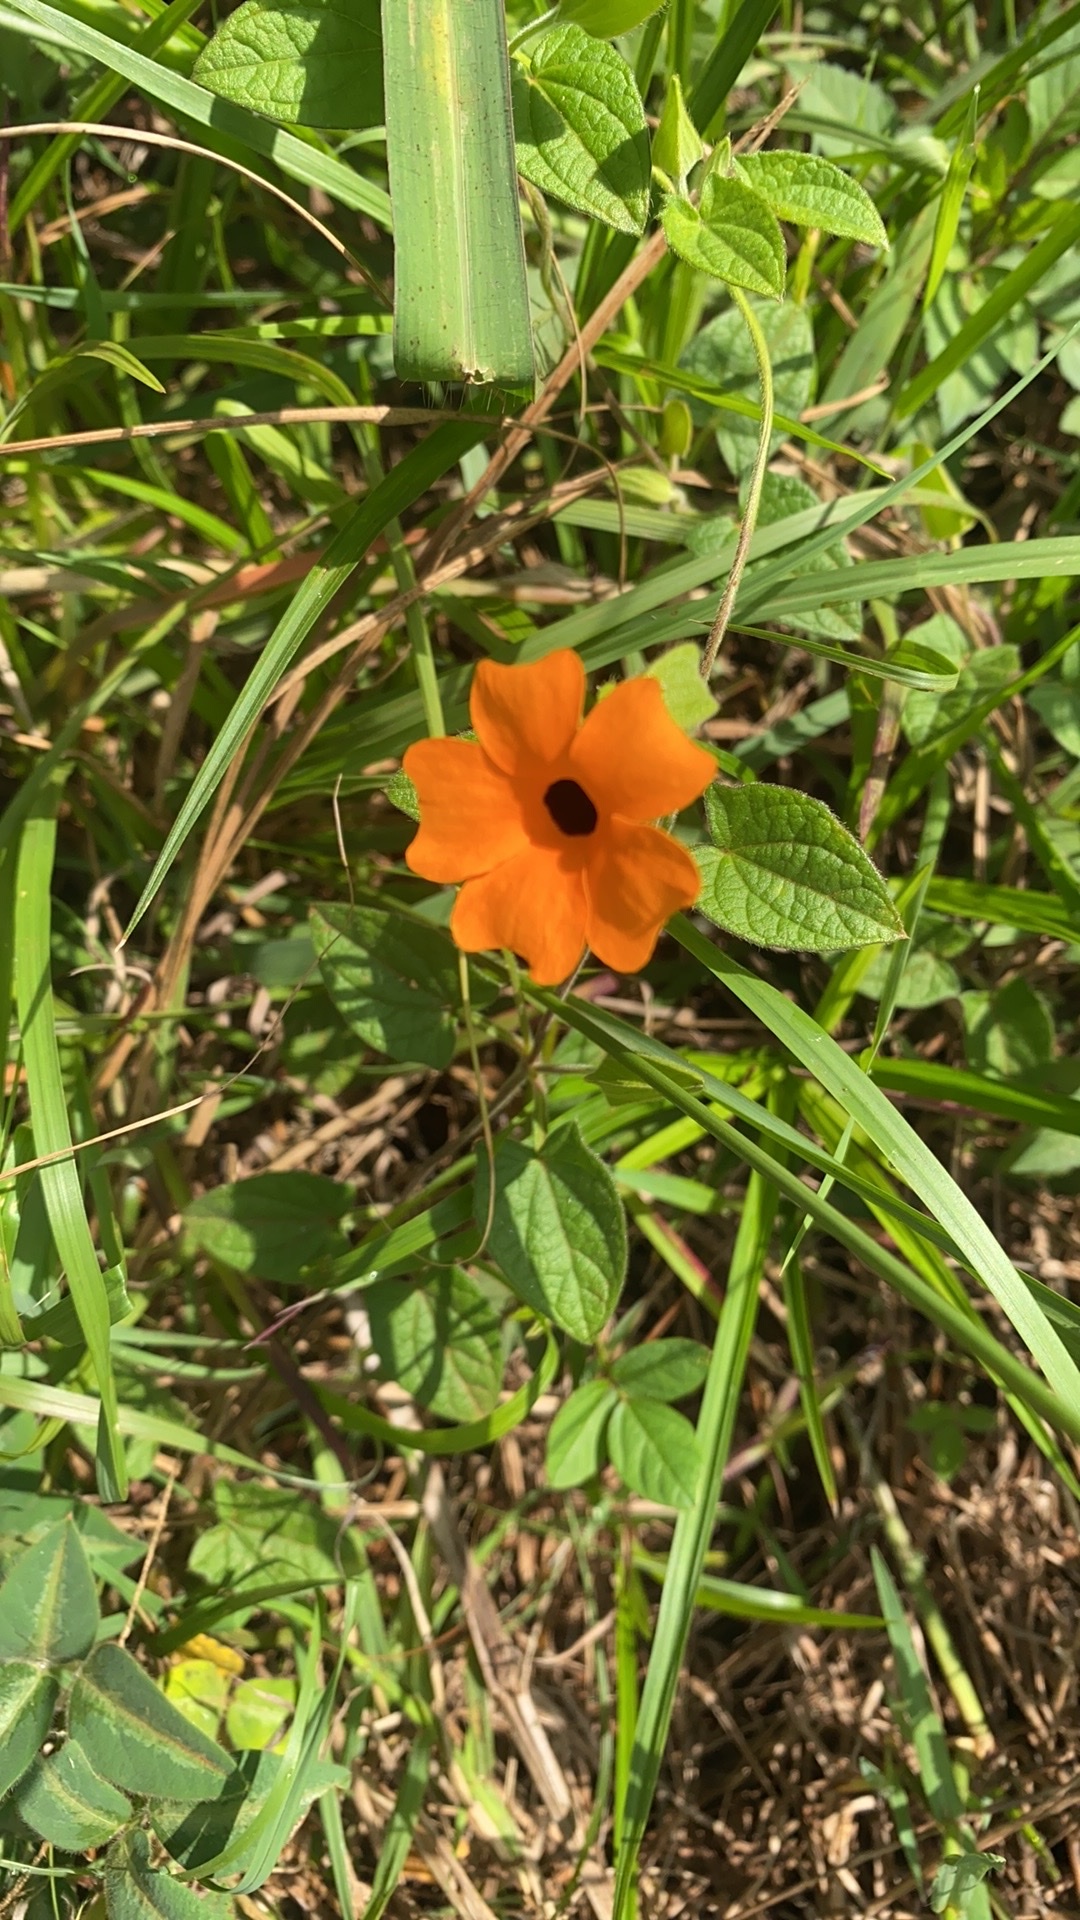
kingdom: Plantae
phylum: Tracheophyta
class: Magnoliopsida
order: Lamiales
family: Acanthaceae
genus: Thunbergia
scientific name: Thunbergia alata
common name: Blackeyed susan vine
